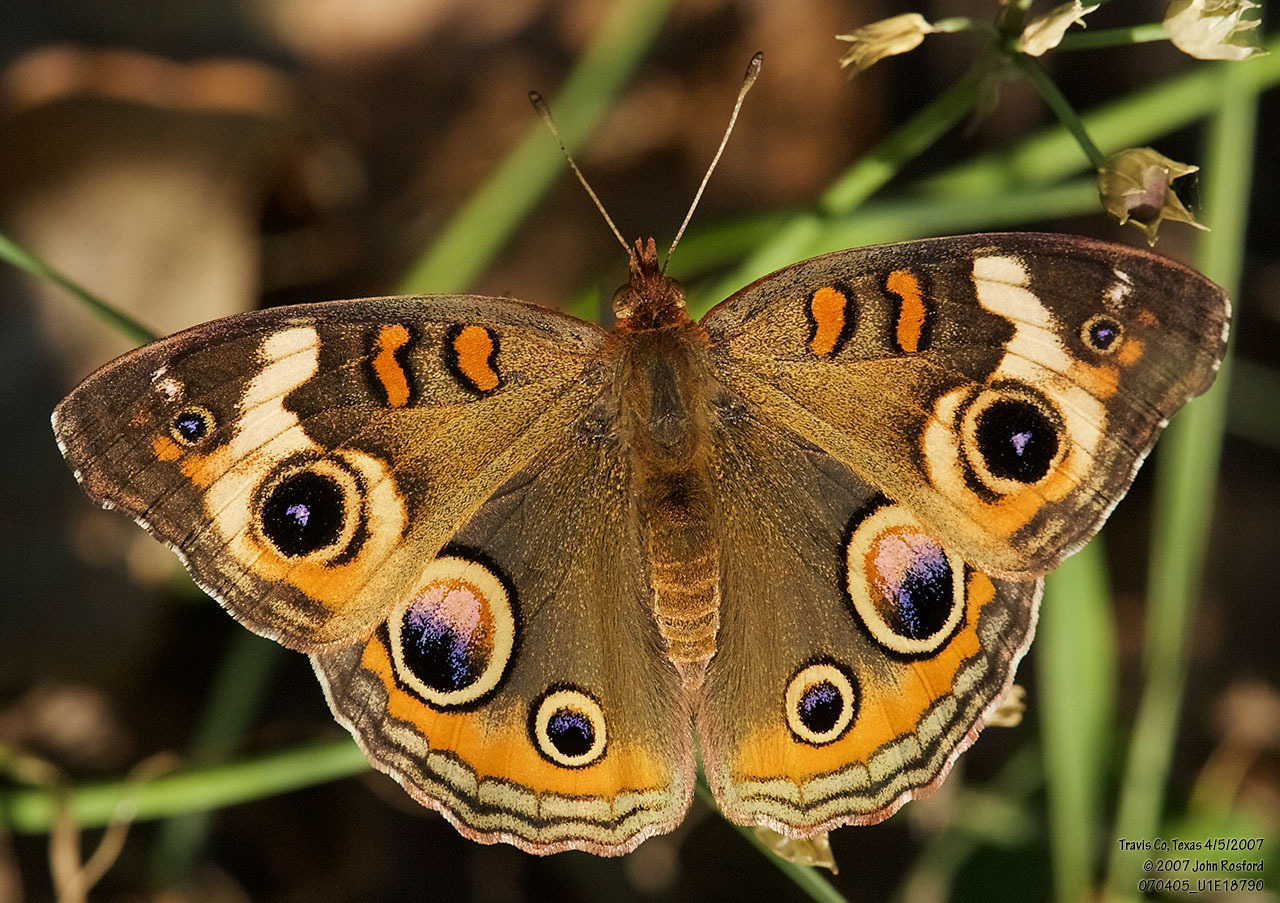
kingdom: Animalia
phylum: Arthropoda
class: Insecta
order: Lepidoptera
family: Nymphalidae
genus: Junonia
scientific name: Junonia coenia
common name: Common buckeye
